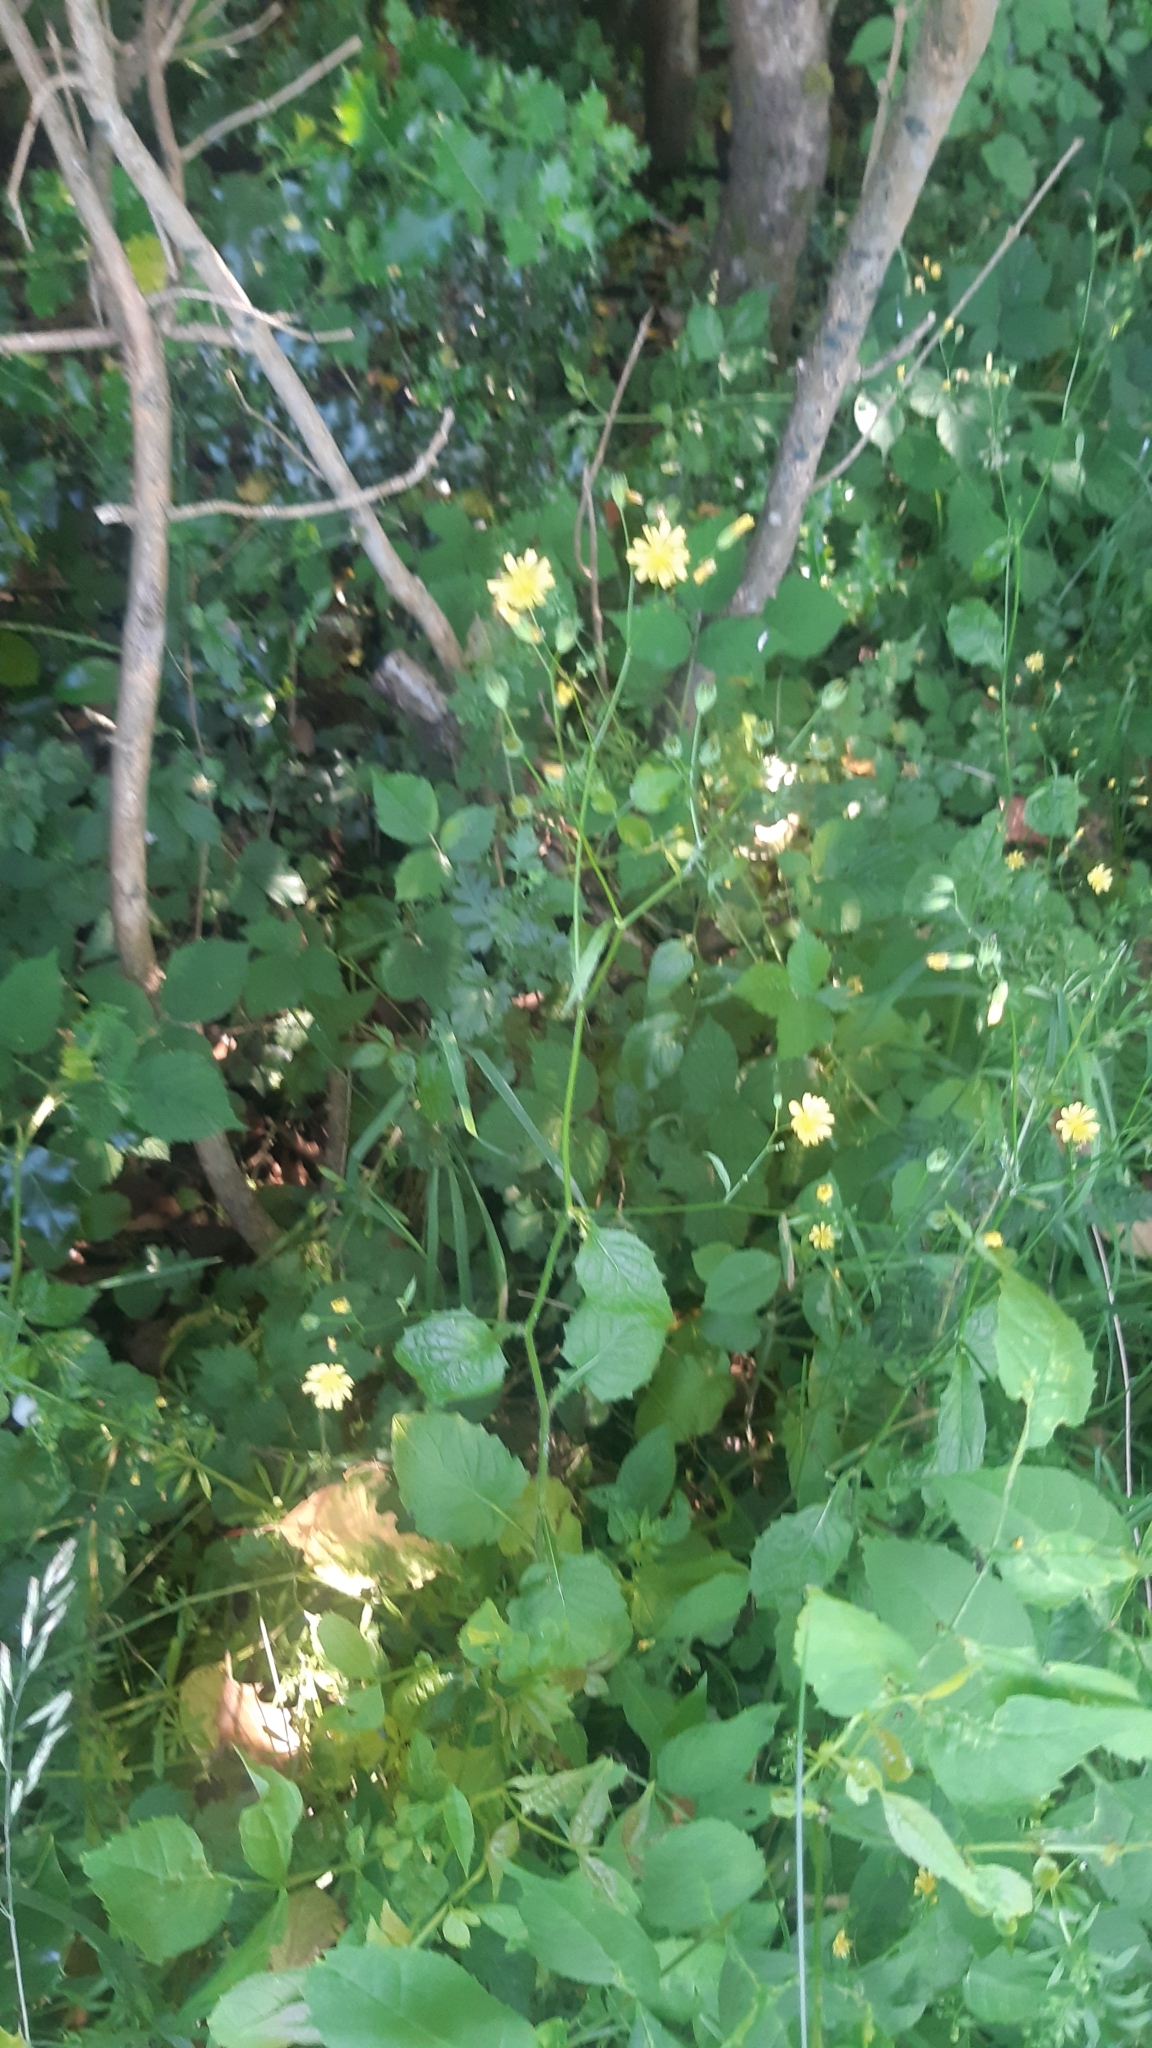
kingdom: Plantae
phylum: Tracheophyta
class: Magnoliopsida
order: Asterales
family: Asteraceae
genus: Lapsana
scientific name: Lapsana communis
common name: Nipplewort
